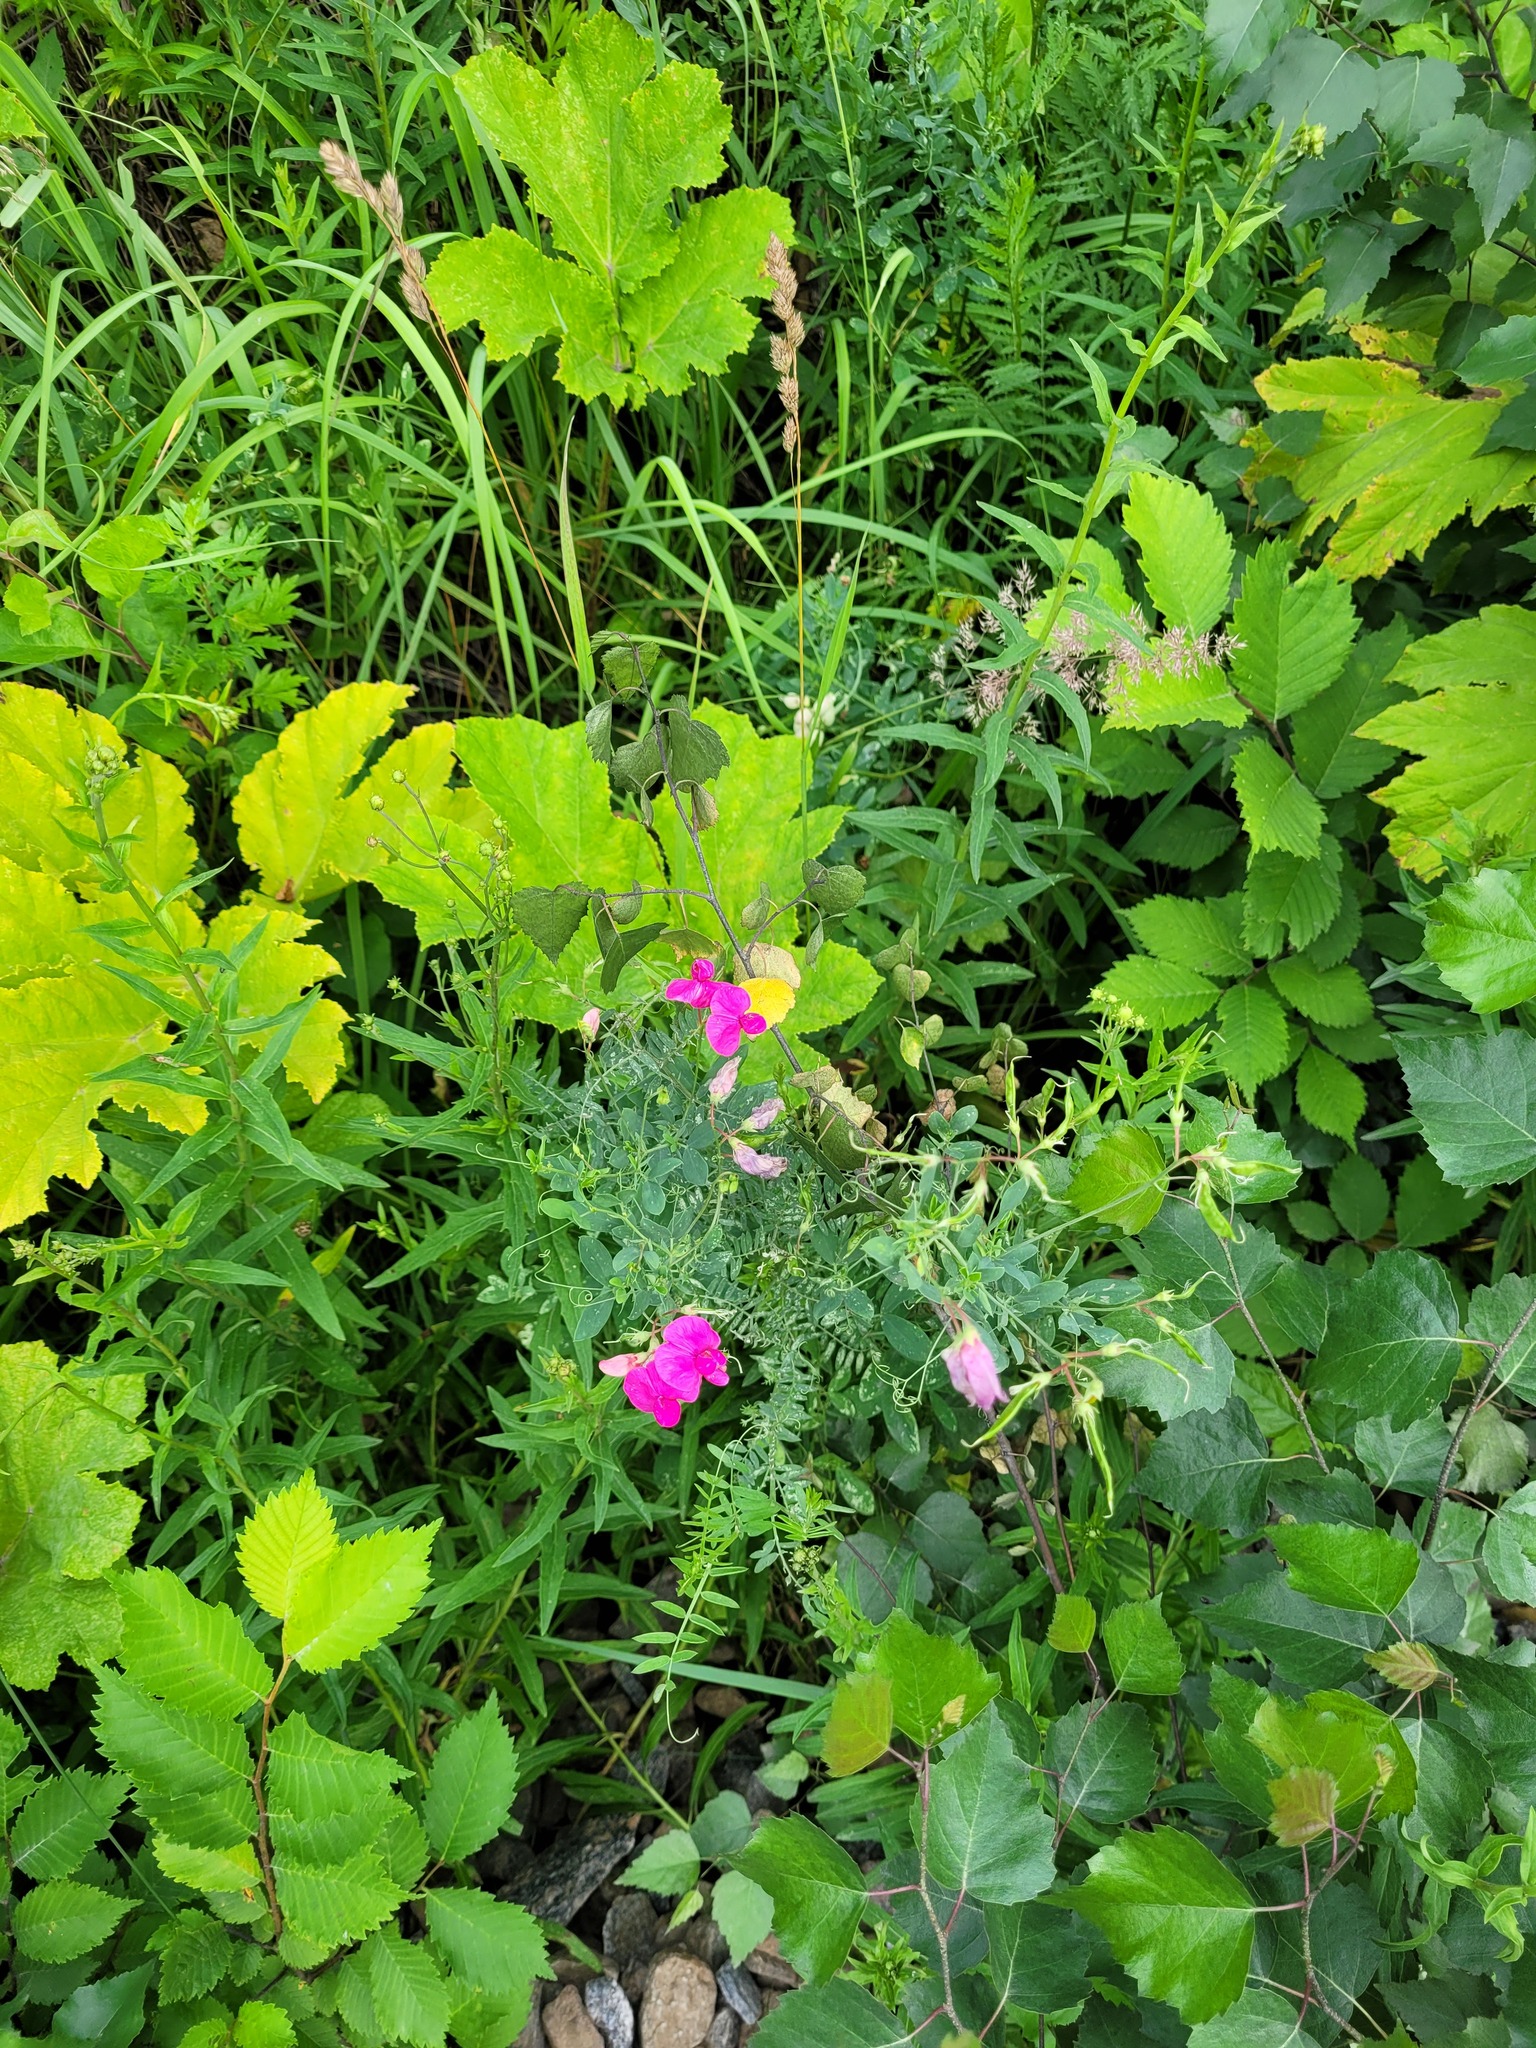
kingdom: Plantae
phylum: Tracheophyta
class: Magnoliopsida
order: Fabales
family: Fabaceae
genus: Lathyrus
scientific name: Lathyrus tuberosus
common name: Tuberous pea
